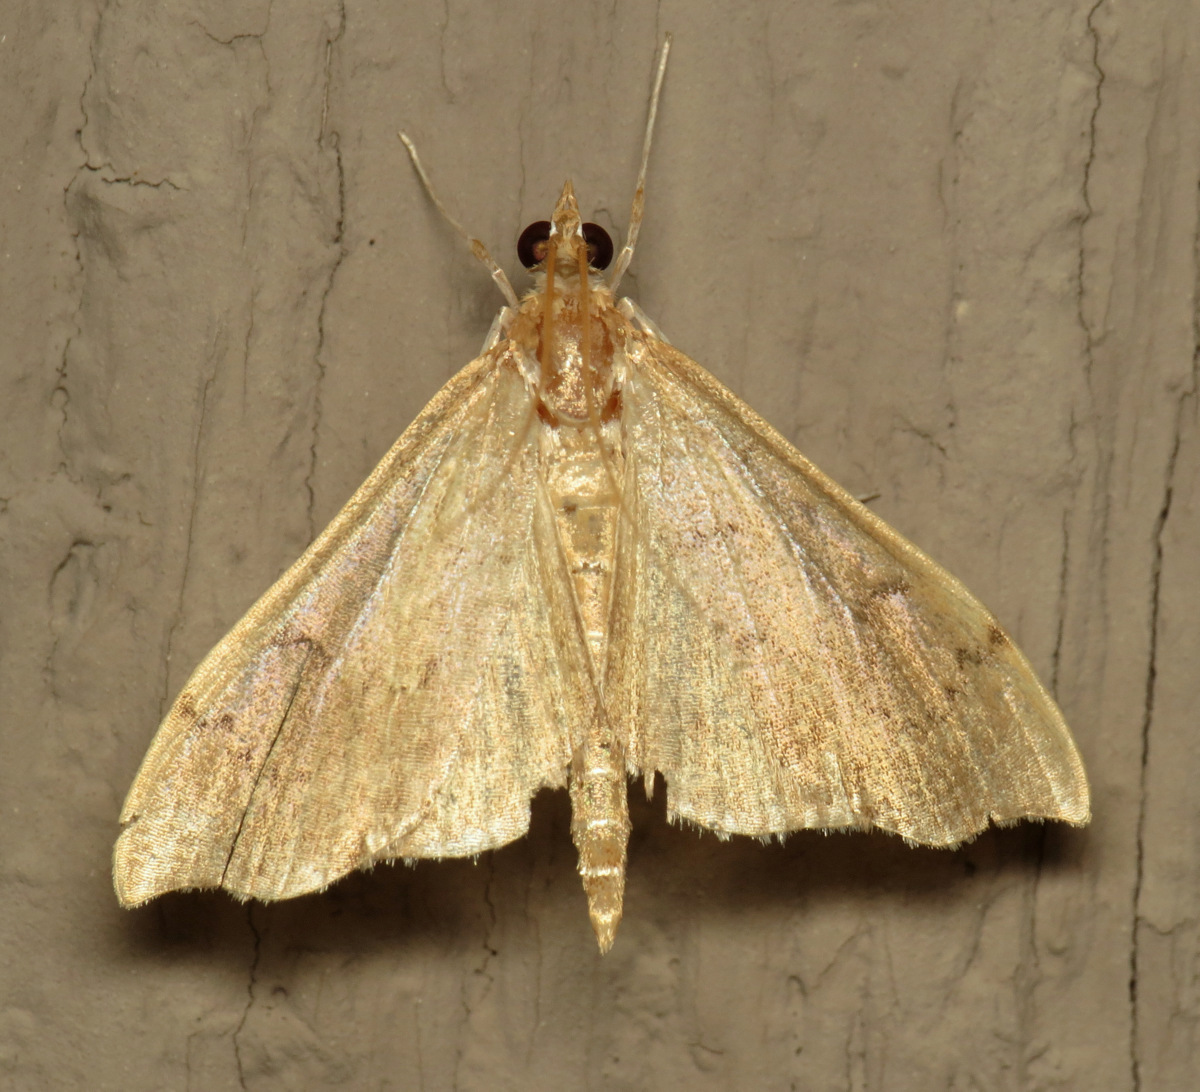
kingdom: Animalia
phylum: Arthropoda
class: Insecta
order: Lepidoptera
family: Crambidae
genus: Sericoplaga
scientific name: Sericoplaga externalis
